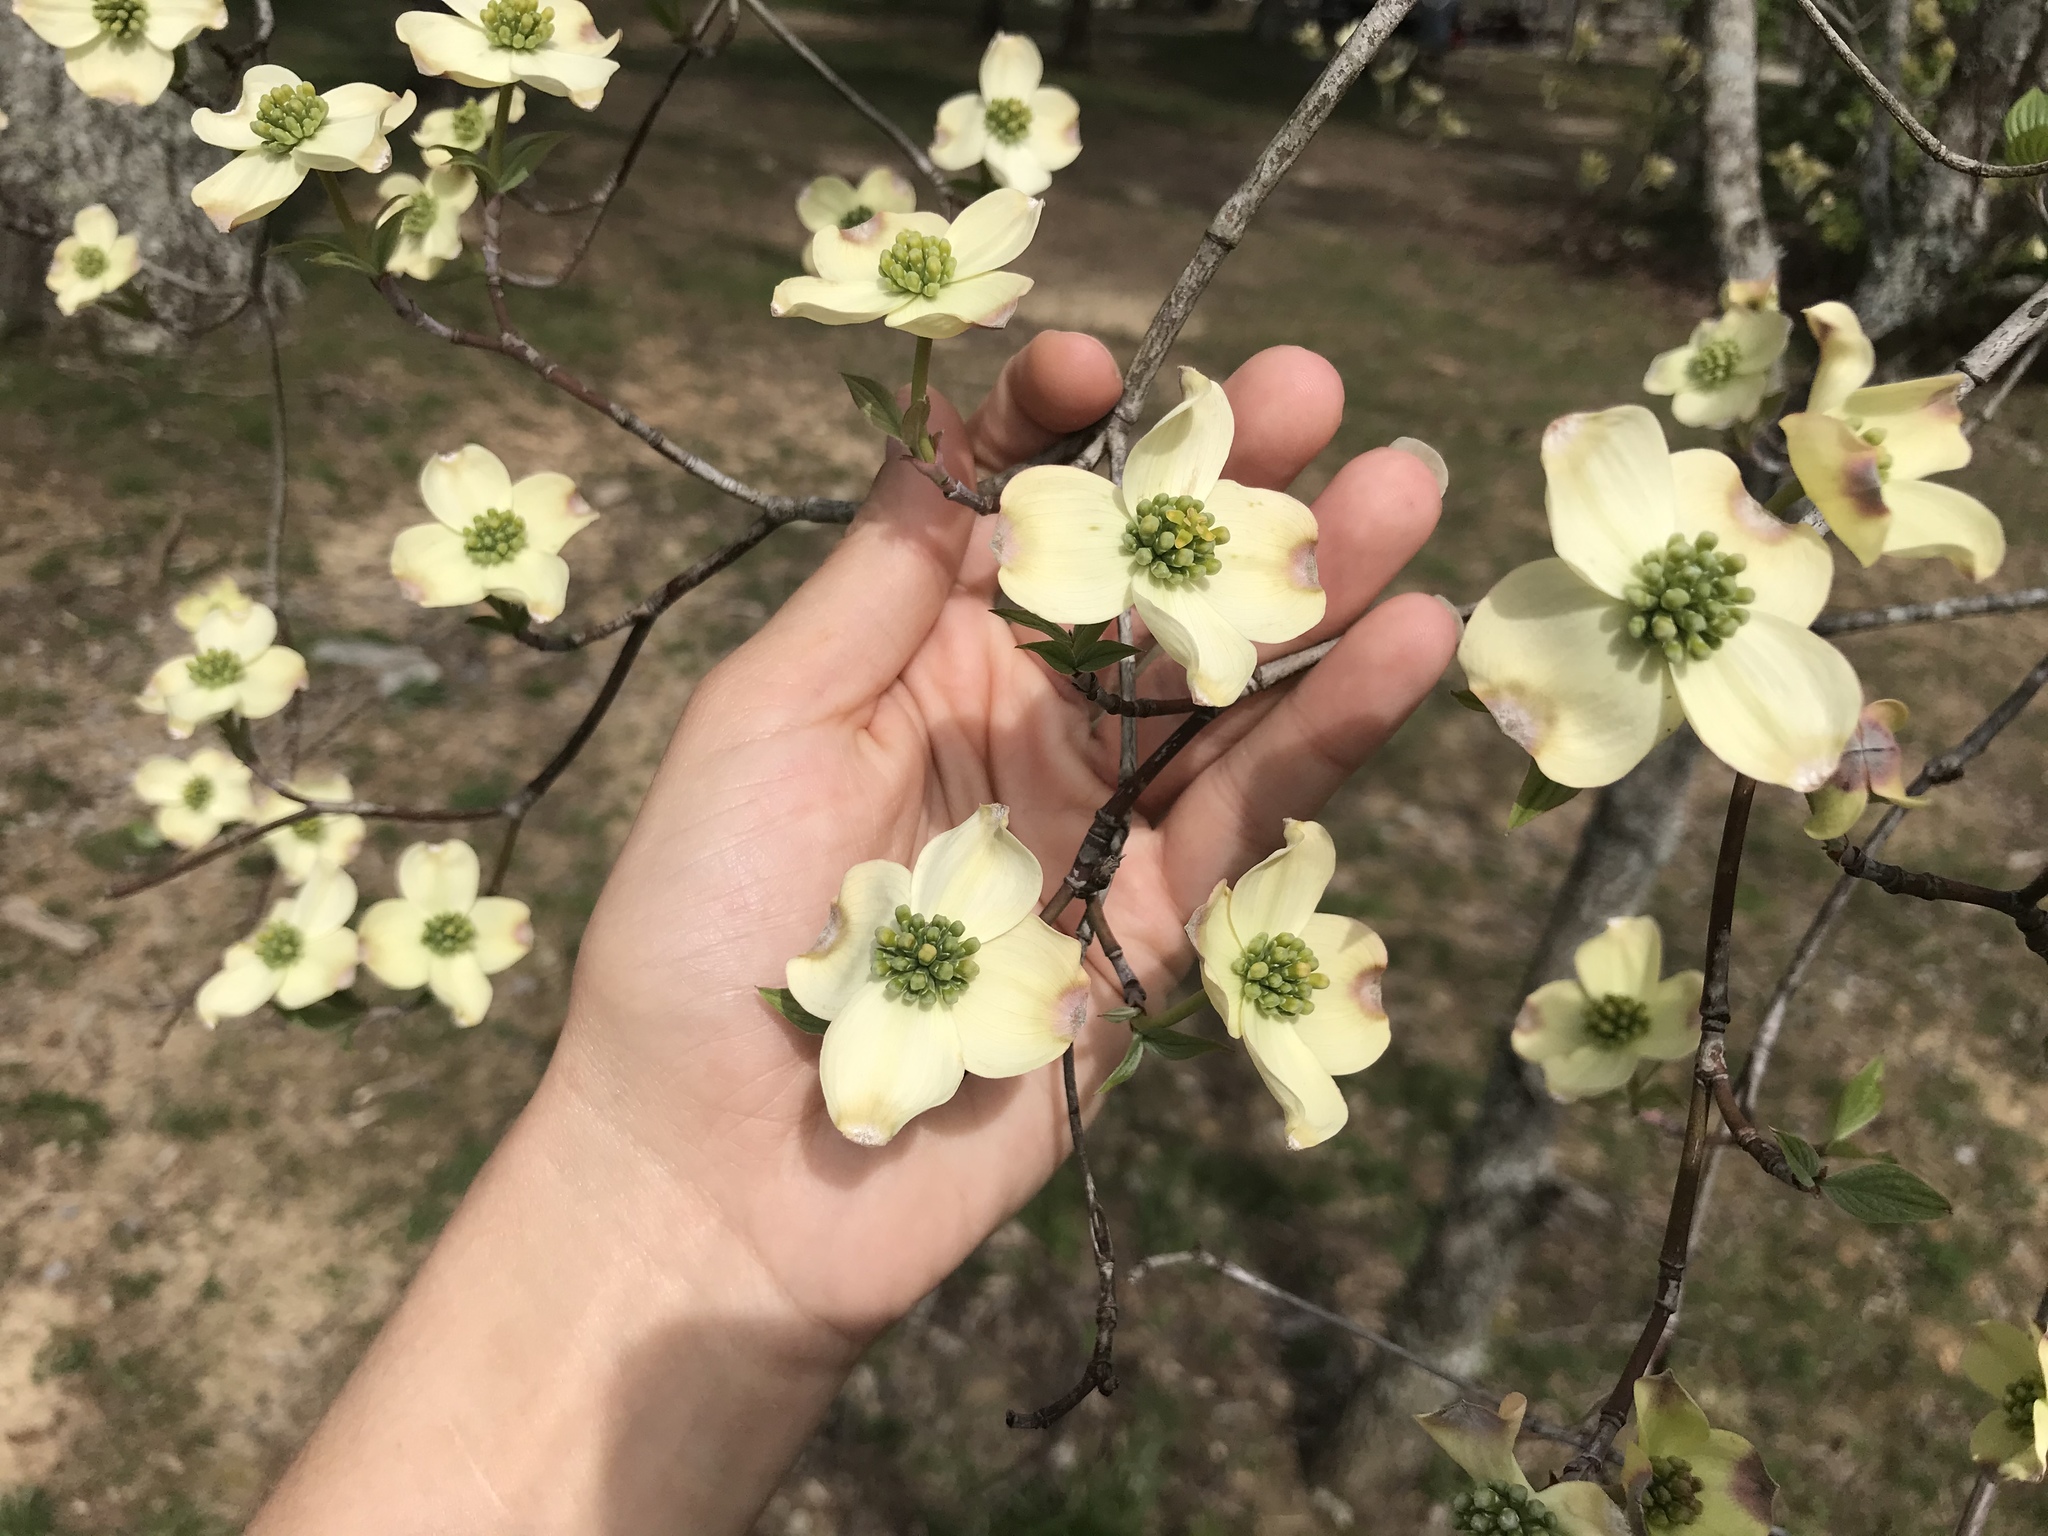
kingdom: Plantae
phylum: Tracheophyta
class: Magnoliopsida
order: Cornales
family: Cornaceae
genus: Cornus
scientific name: Cornus florida
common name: Flowering dogwood
